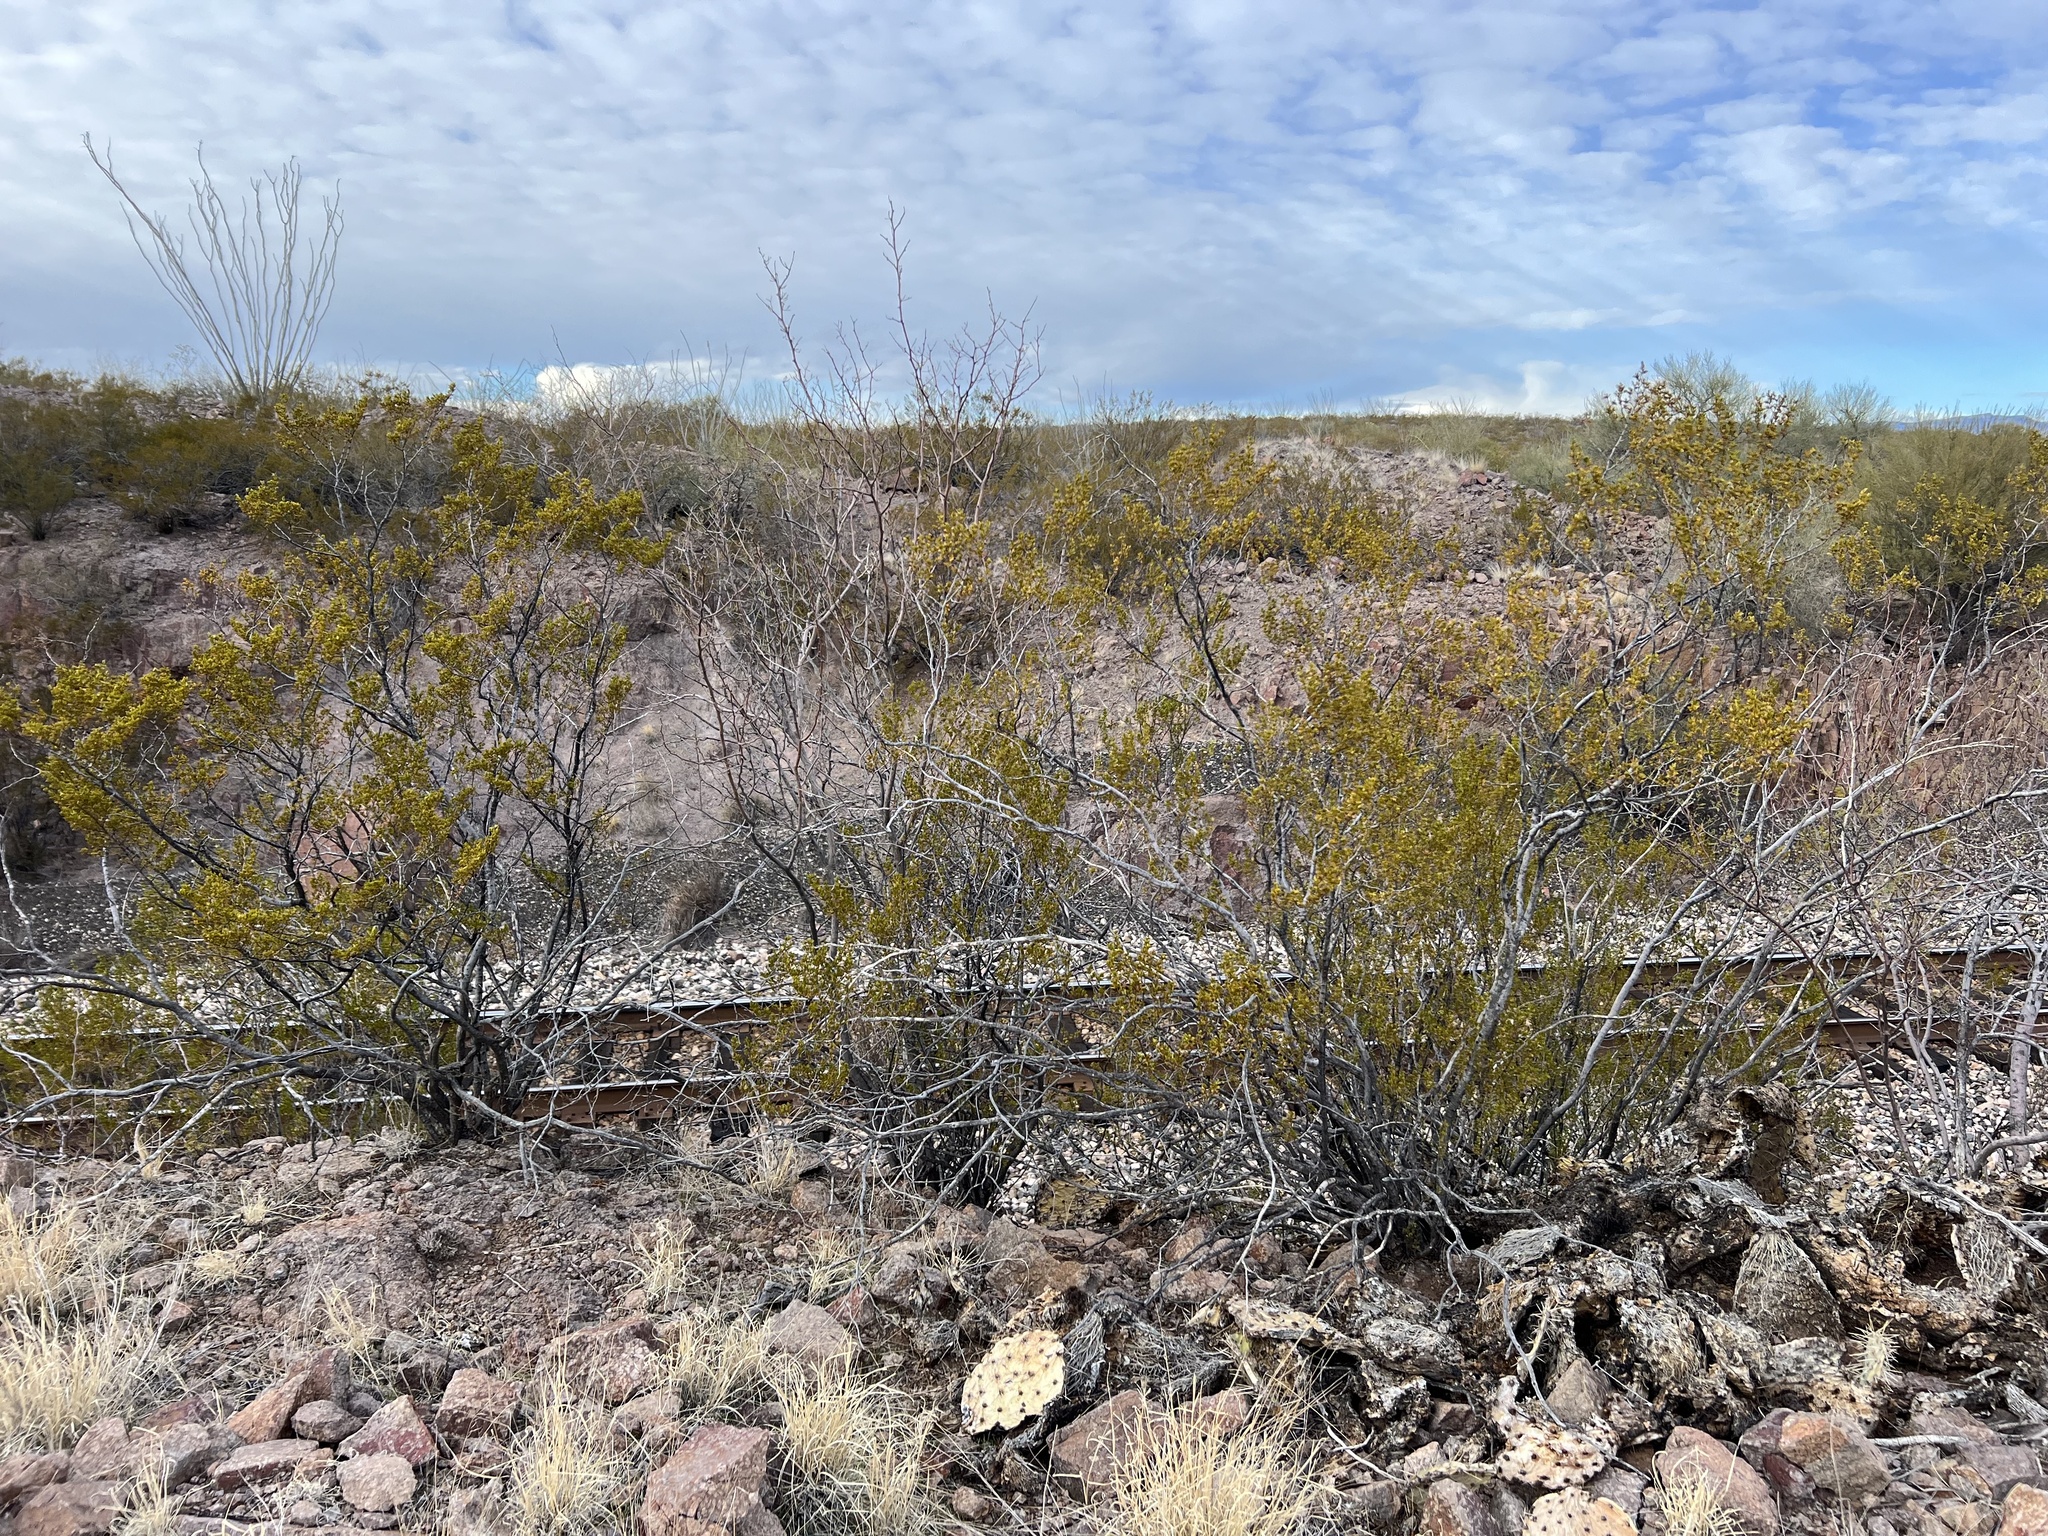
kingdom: Plantae
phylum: Tracheophyta
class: Magnoliopsida
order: Zygophyllales
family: Zygophyllaceae
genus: Larrea
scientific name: Larrea tridentata
